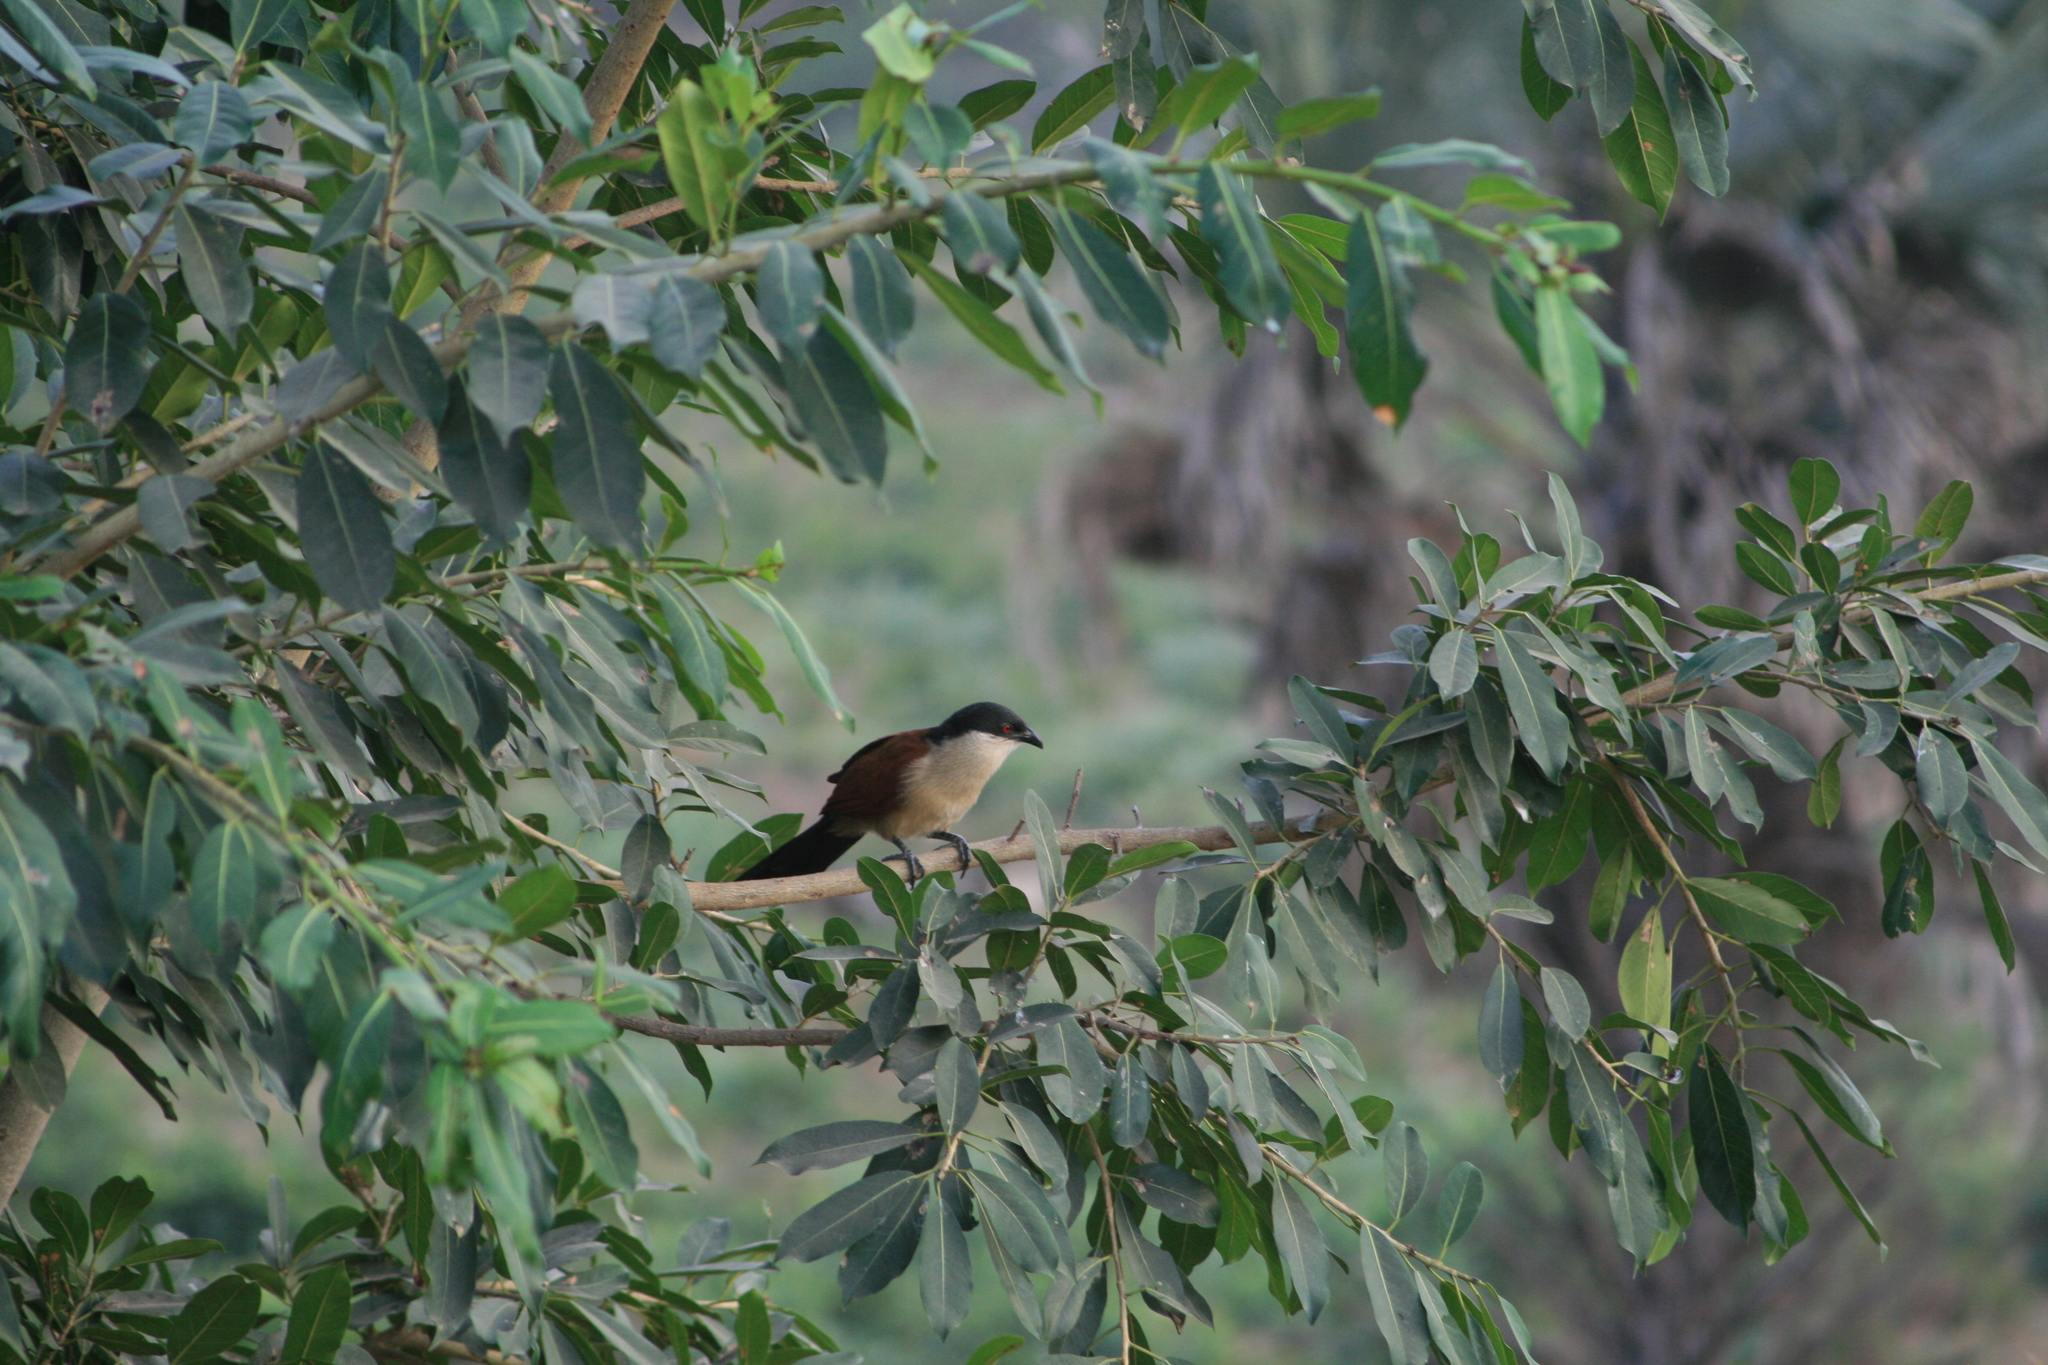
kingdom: Animalia
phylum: Chordata
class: Aves
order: Cuculiformes
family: Cuculidae
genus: Centropus
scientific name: Centropus senegalensis
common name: Senegal coucal
